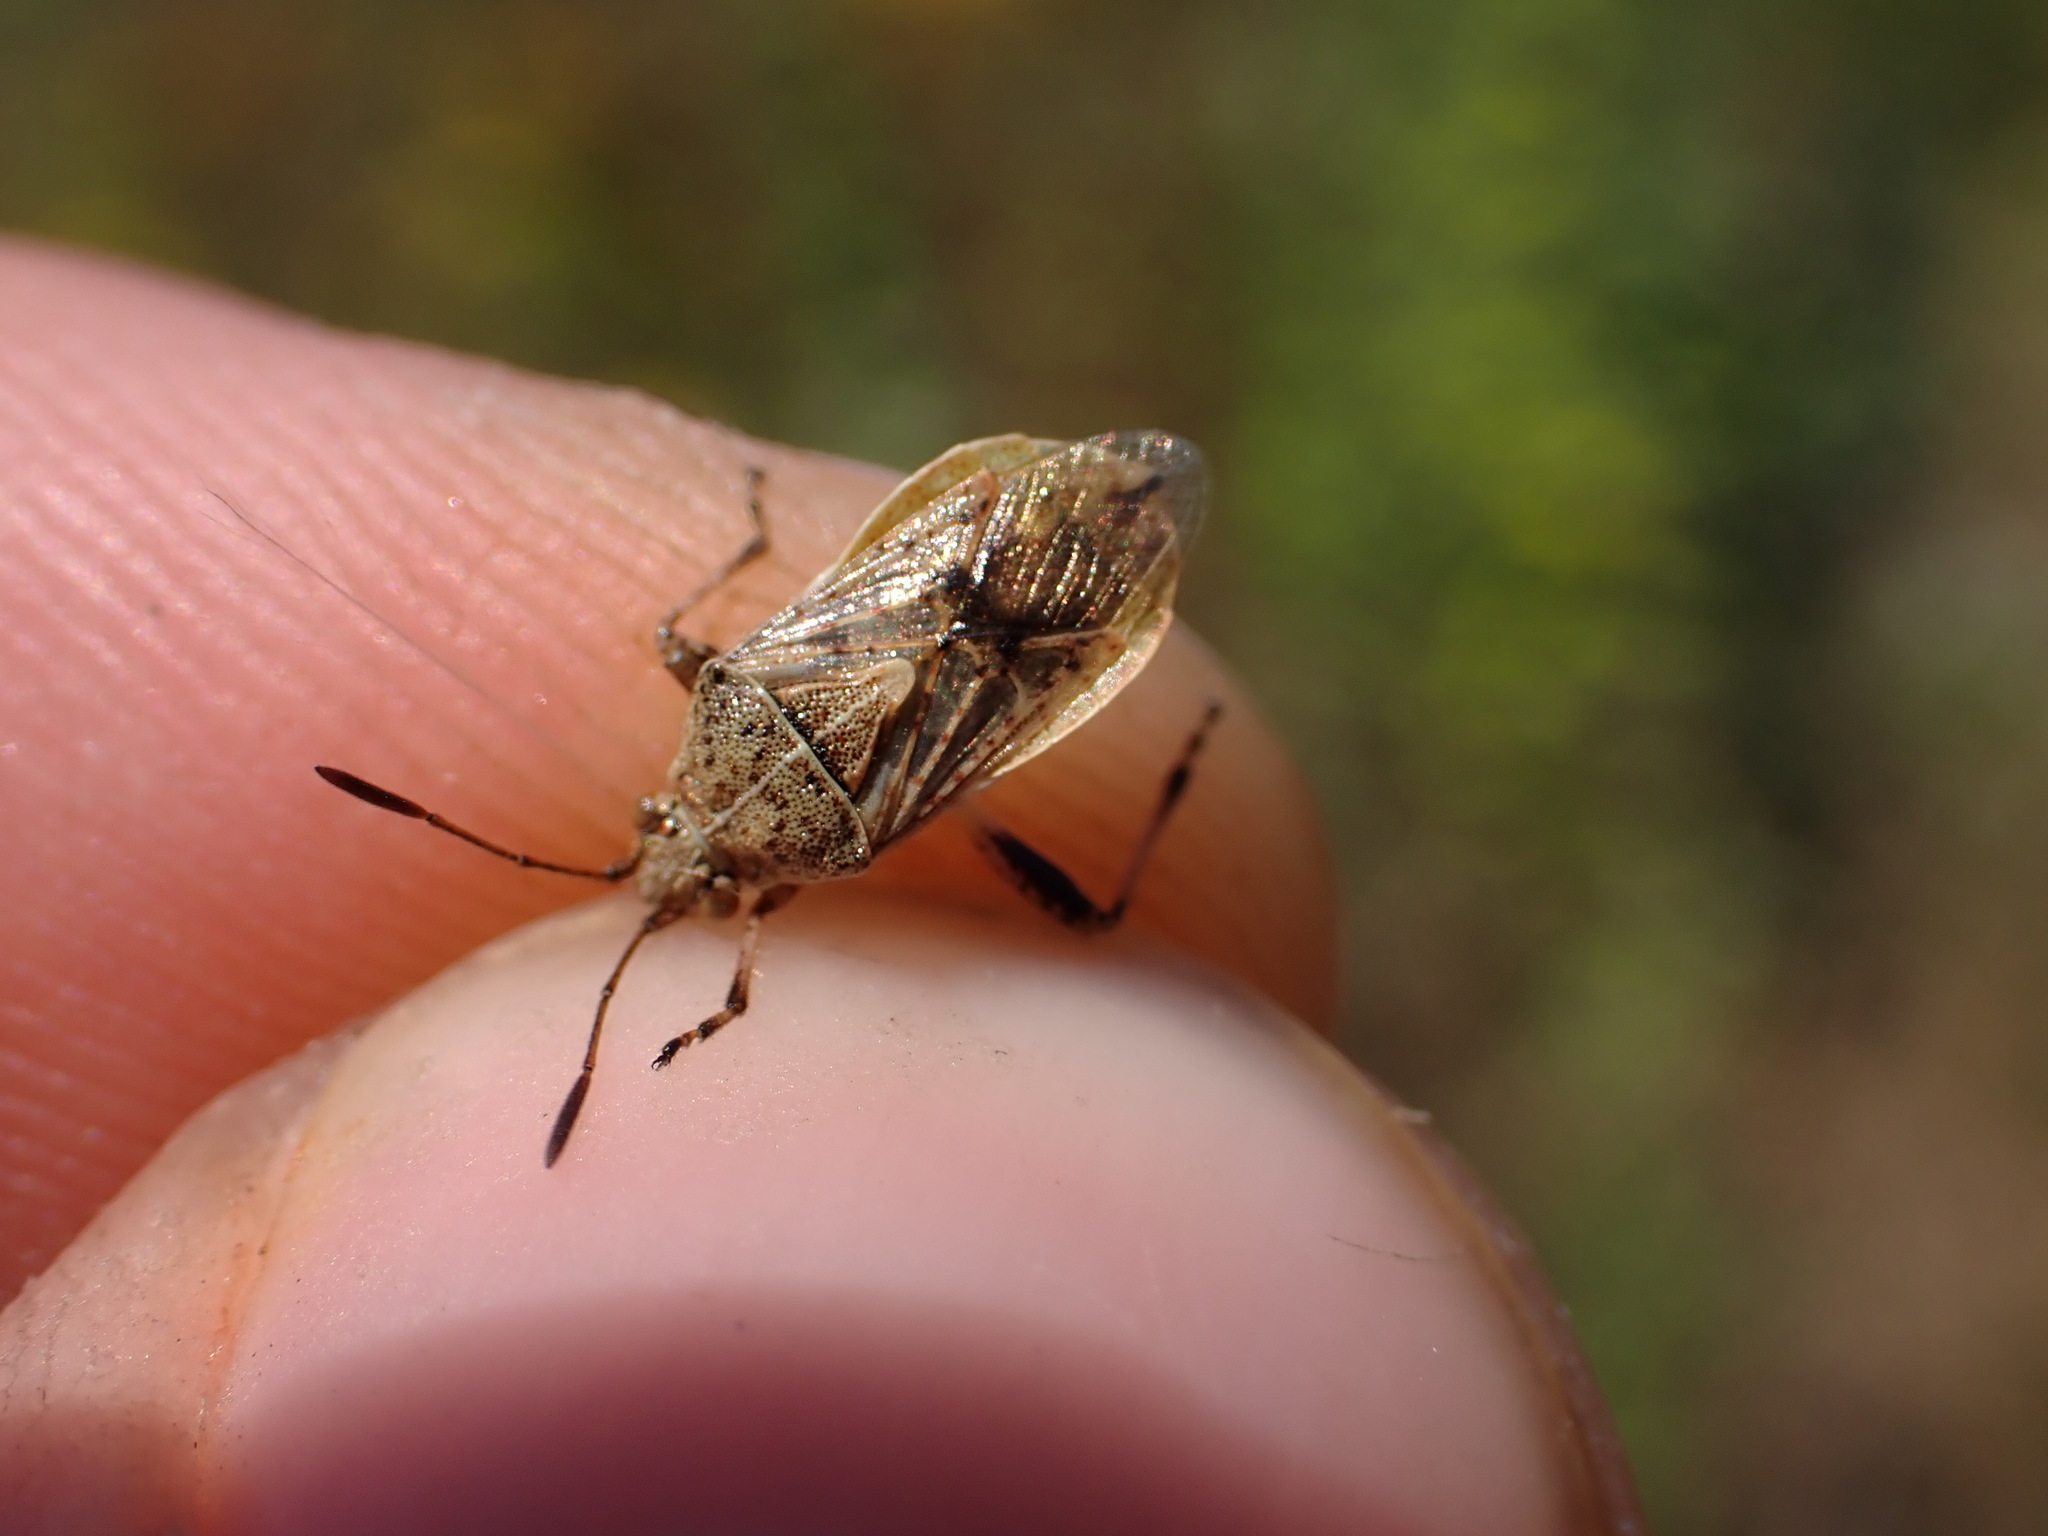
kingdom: Animalia
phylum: Arthropoda
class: Insecta
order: Hemiptera
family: Rhopalidae
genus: Stictopleurus
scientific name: Stictopleurus punctatonervosus
